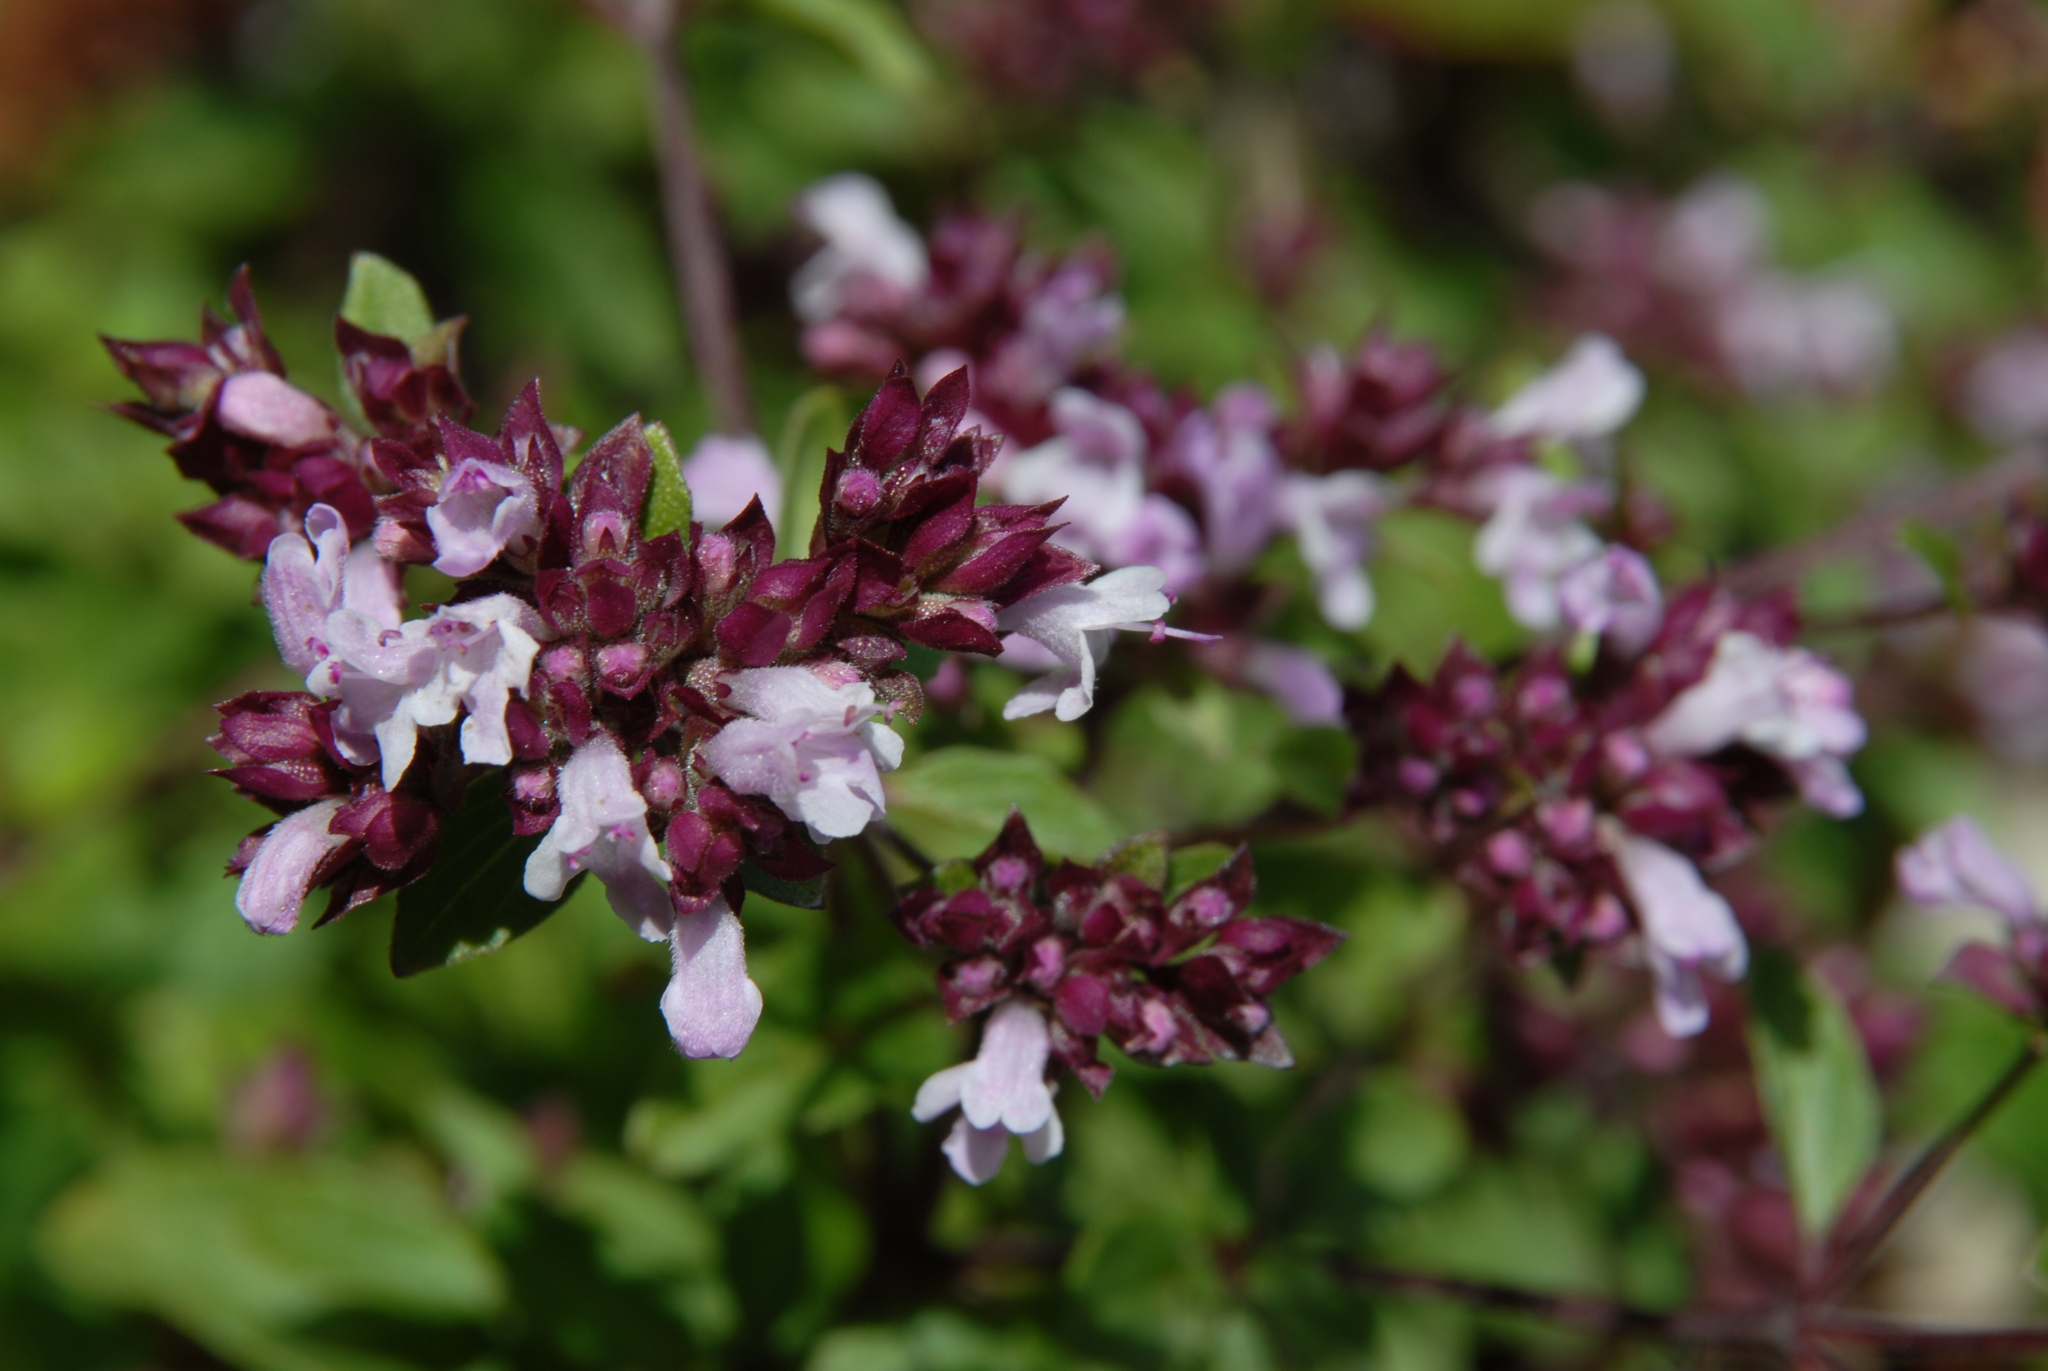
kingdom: Plantae
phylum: Tracheophyta
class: Magnoliopsida
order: Lamiales
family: Lamiaceae
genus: Origanum
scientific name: Origanum vulgare
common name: Wild marjoram
